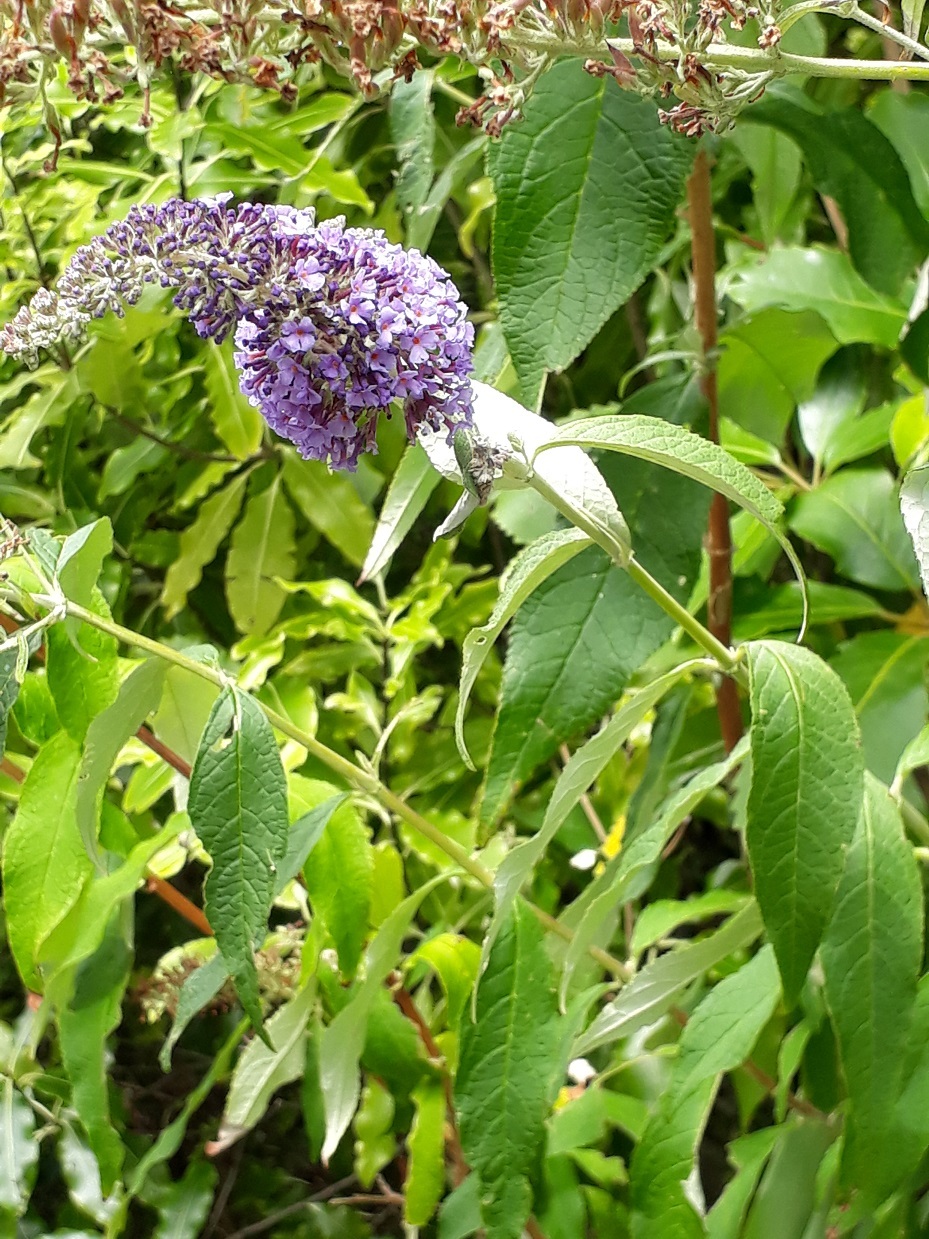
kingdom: Plantae
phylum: Tracheophyta
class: Magnoliopsida
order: Lamiales
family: Scrophulariaceae
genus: Buddleja
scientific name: Buddleja davidii
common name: Butterfly-bush
